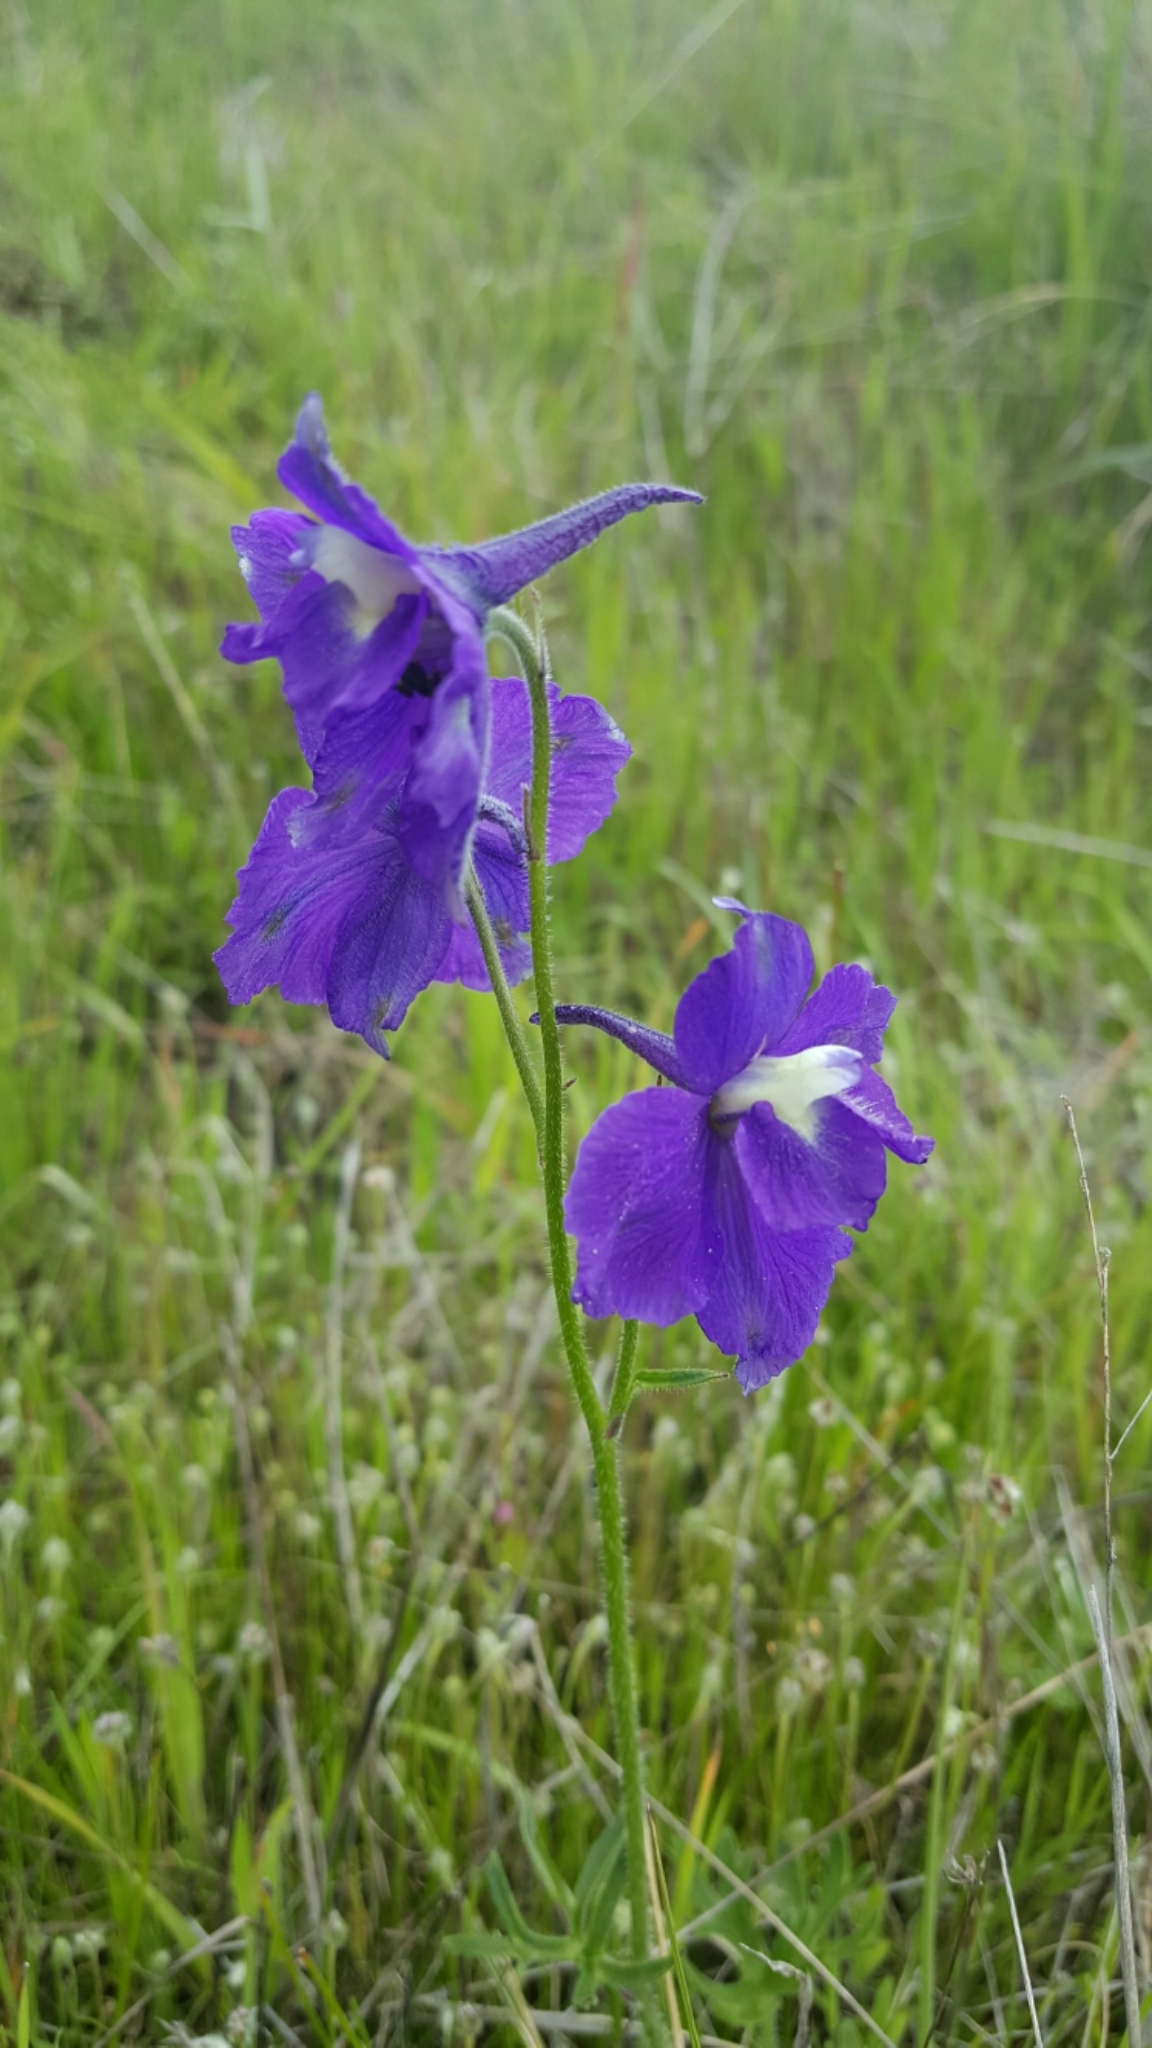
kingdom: Plantae
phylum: Tracheophyta
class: Magnoliopsida
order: Ranunculales
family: Ranunculaceae
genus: Delphinium
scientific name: Delphinium variegatum
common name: Royal larkspur
